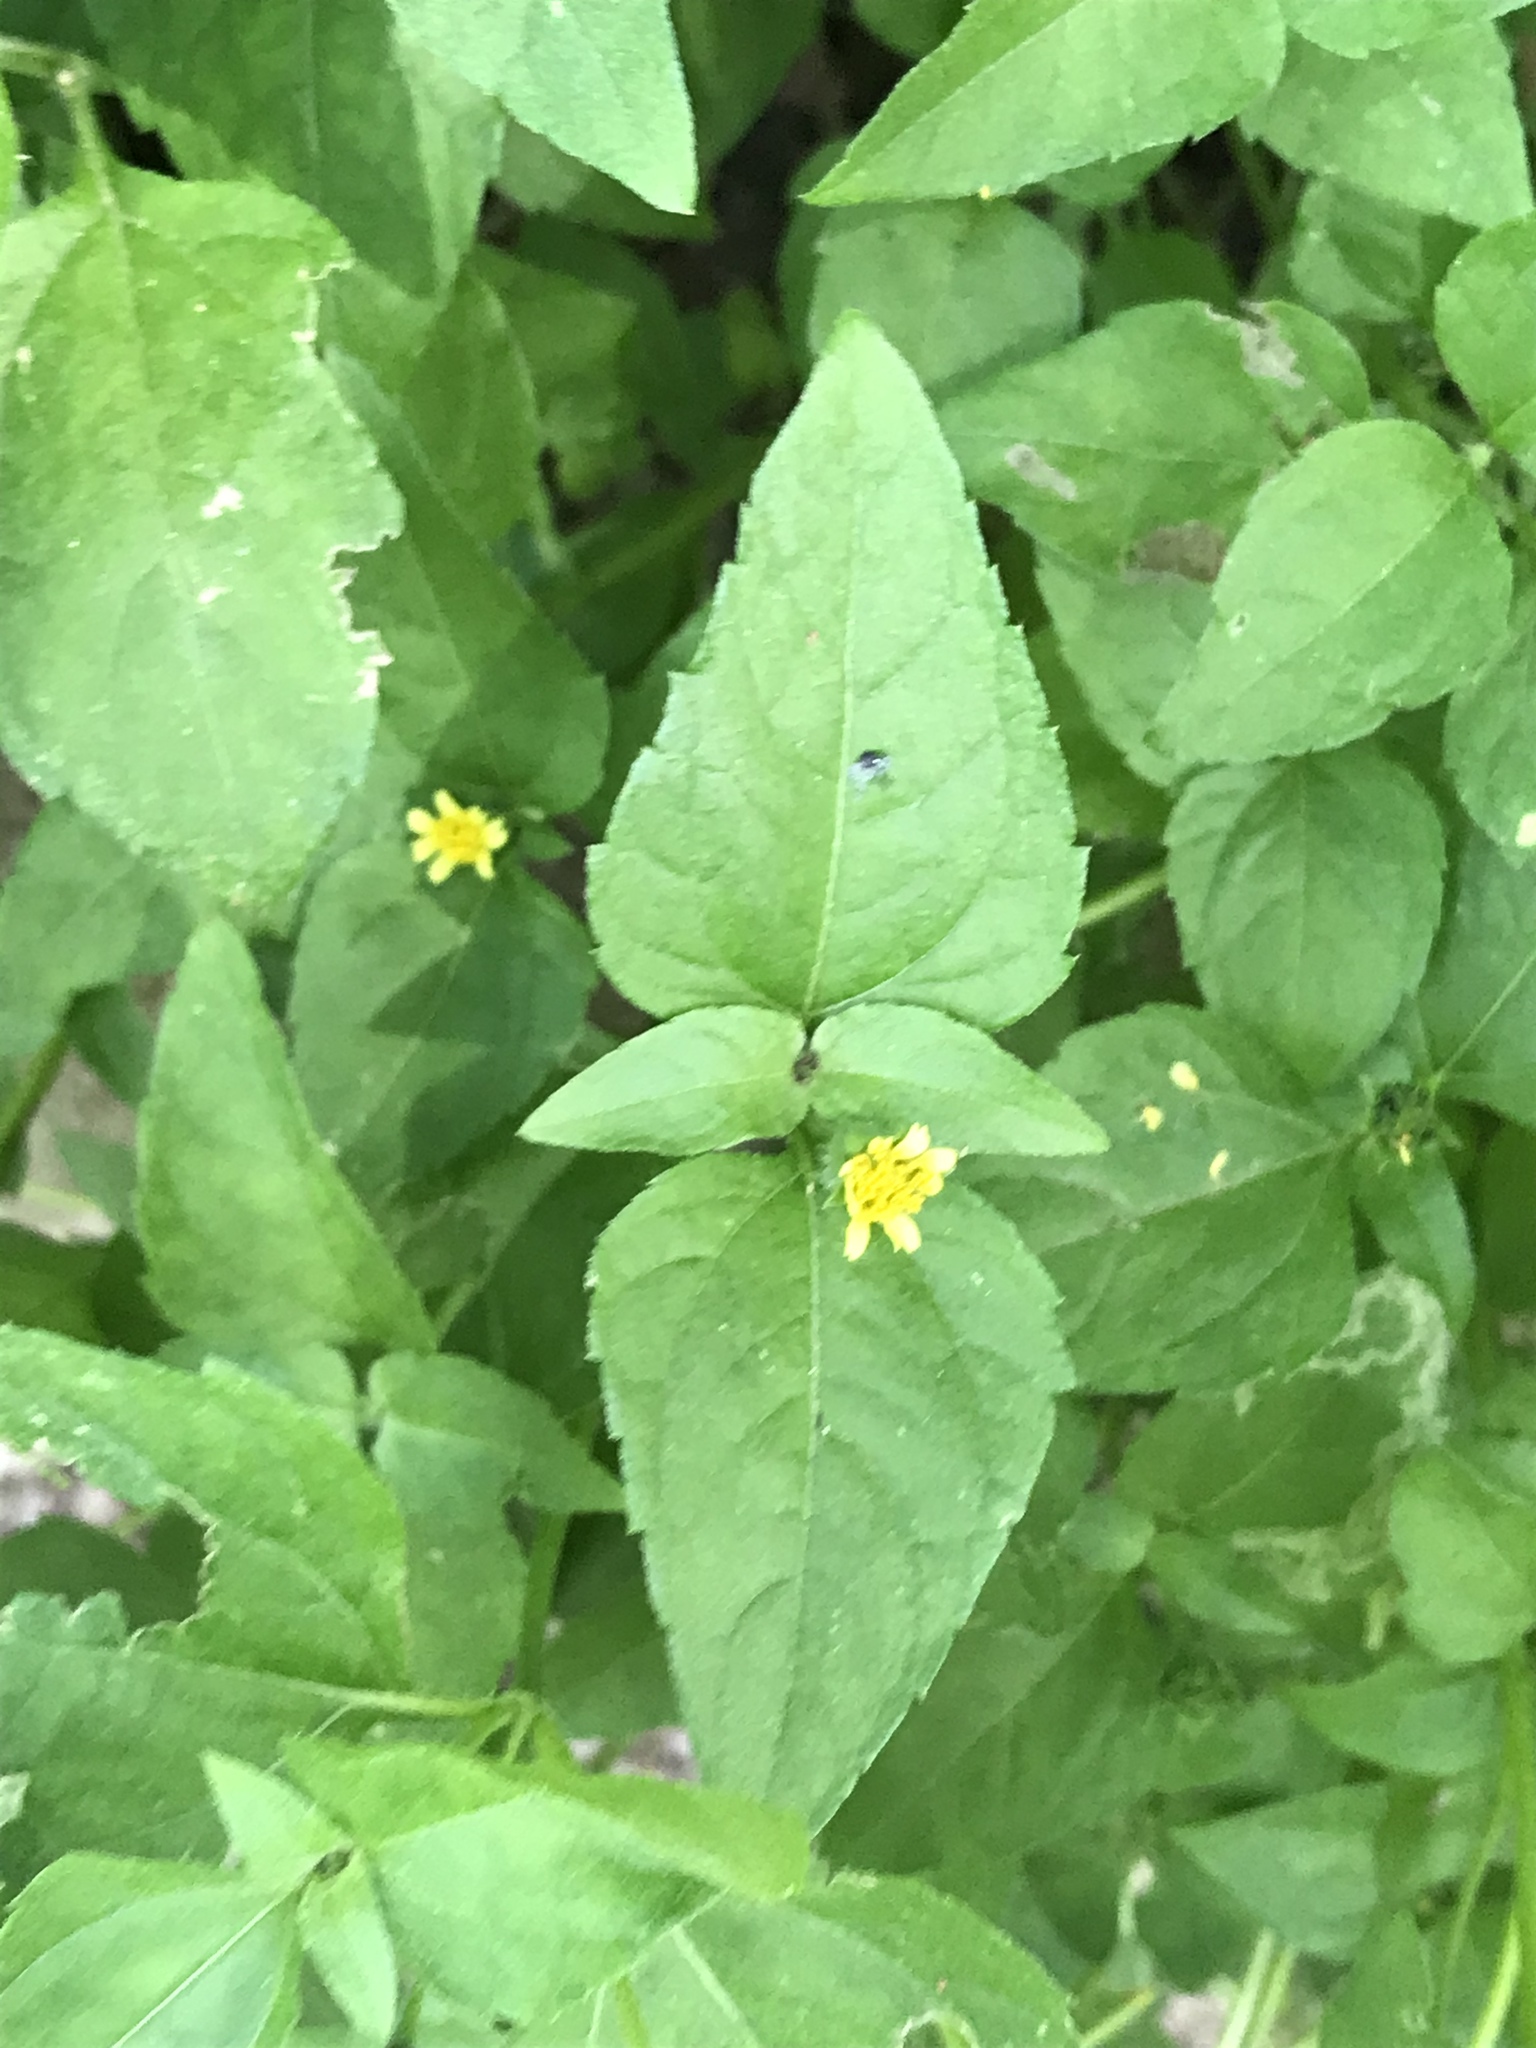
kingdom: Plantae
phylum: Tracheophyta
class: Magnoliopsida
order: Asterales
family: Asteraceae
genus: Calyptocarpus
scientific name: Calyptocarpus vialis
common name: Straggler daisy
